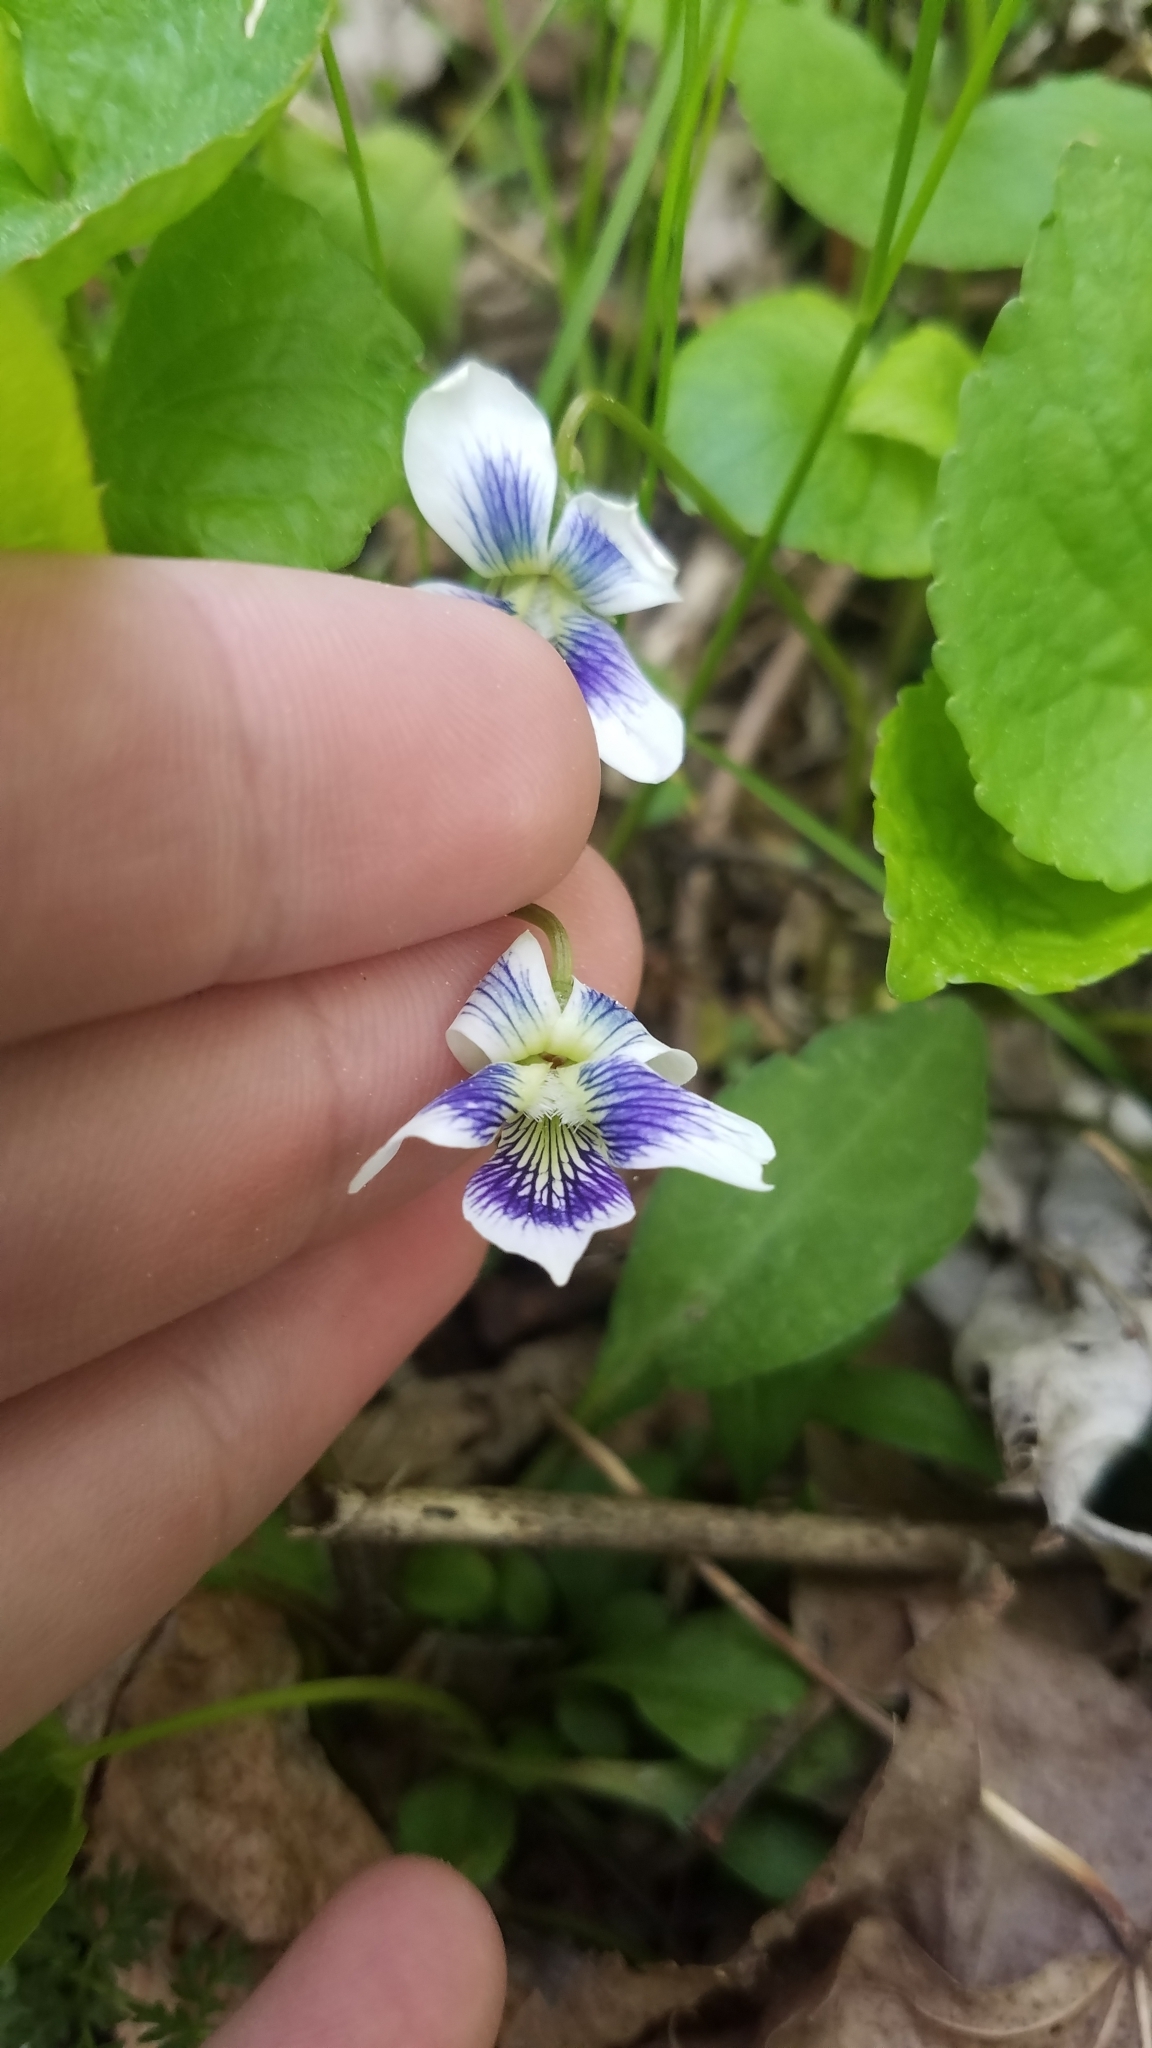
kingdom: Plantae
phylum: Tracheophyta
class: Magnoliopsida
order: Malpighiales
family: Violaceae
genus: Viola
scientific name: Viola sororia
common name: Dooryard violet
